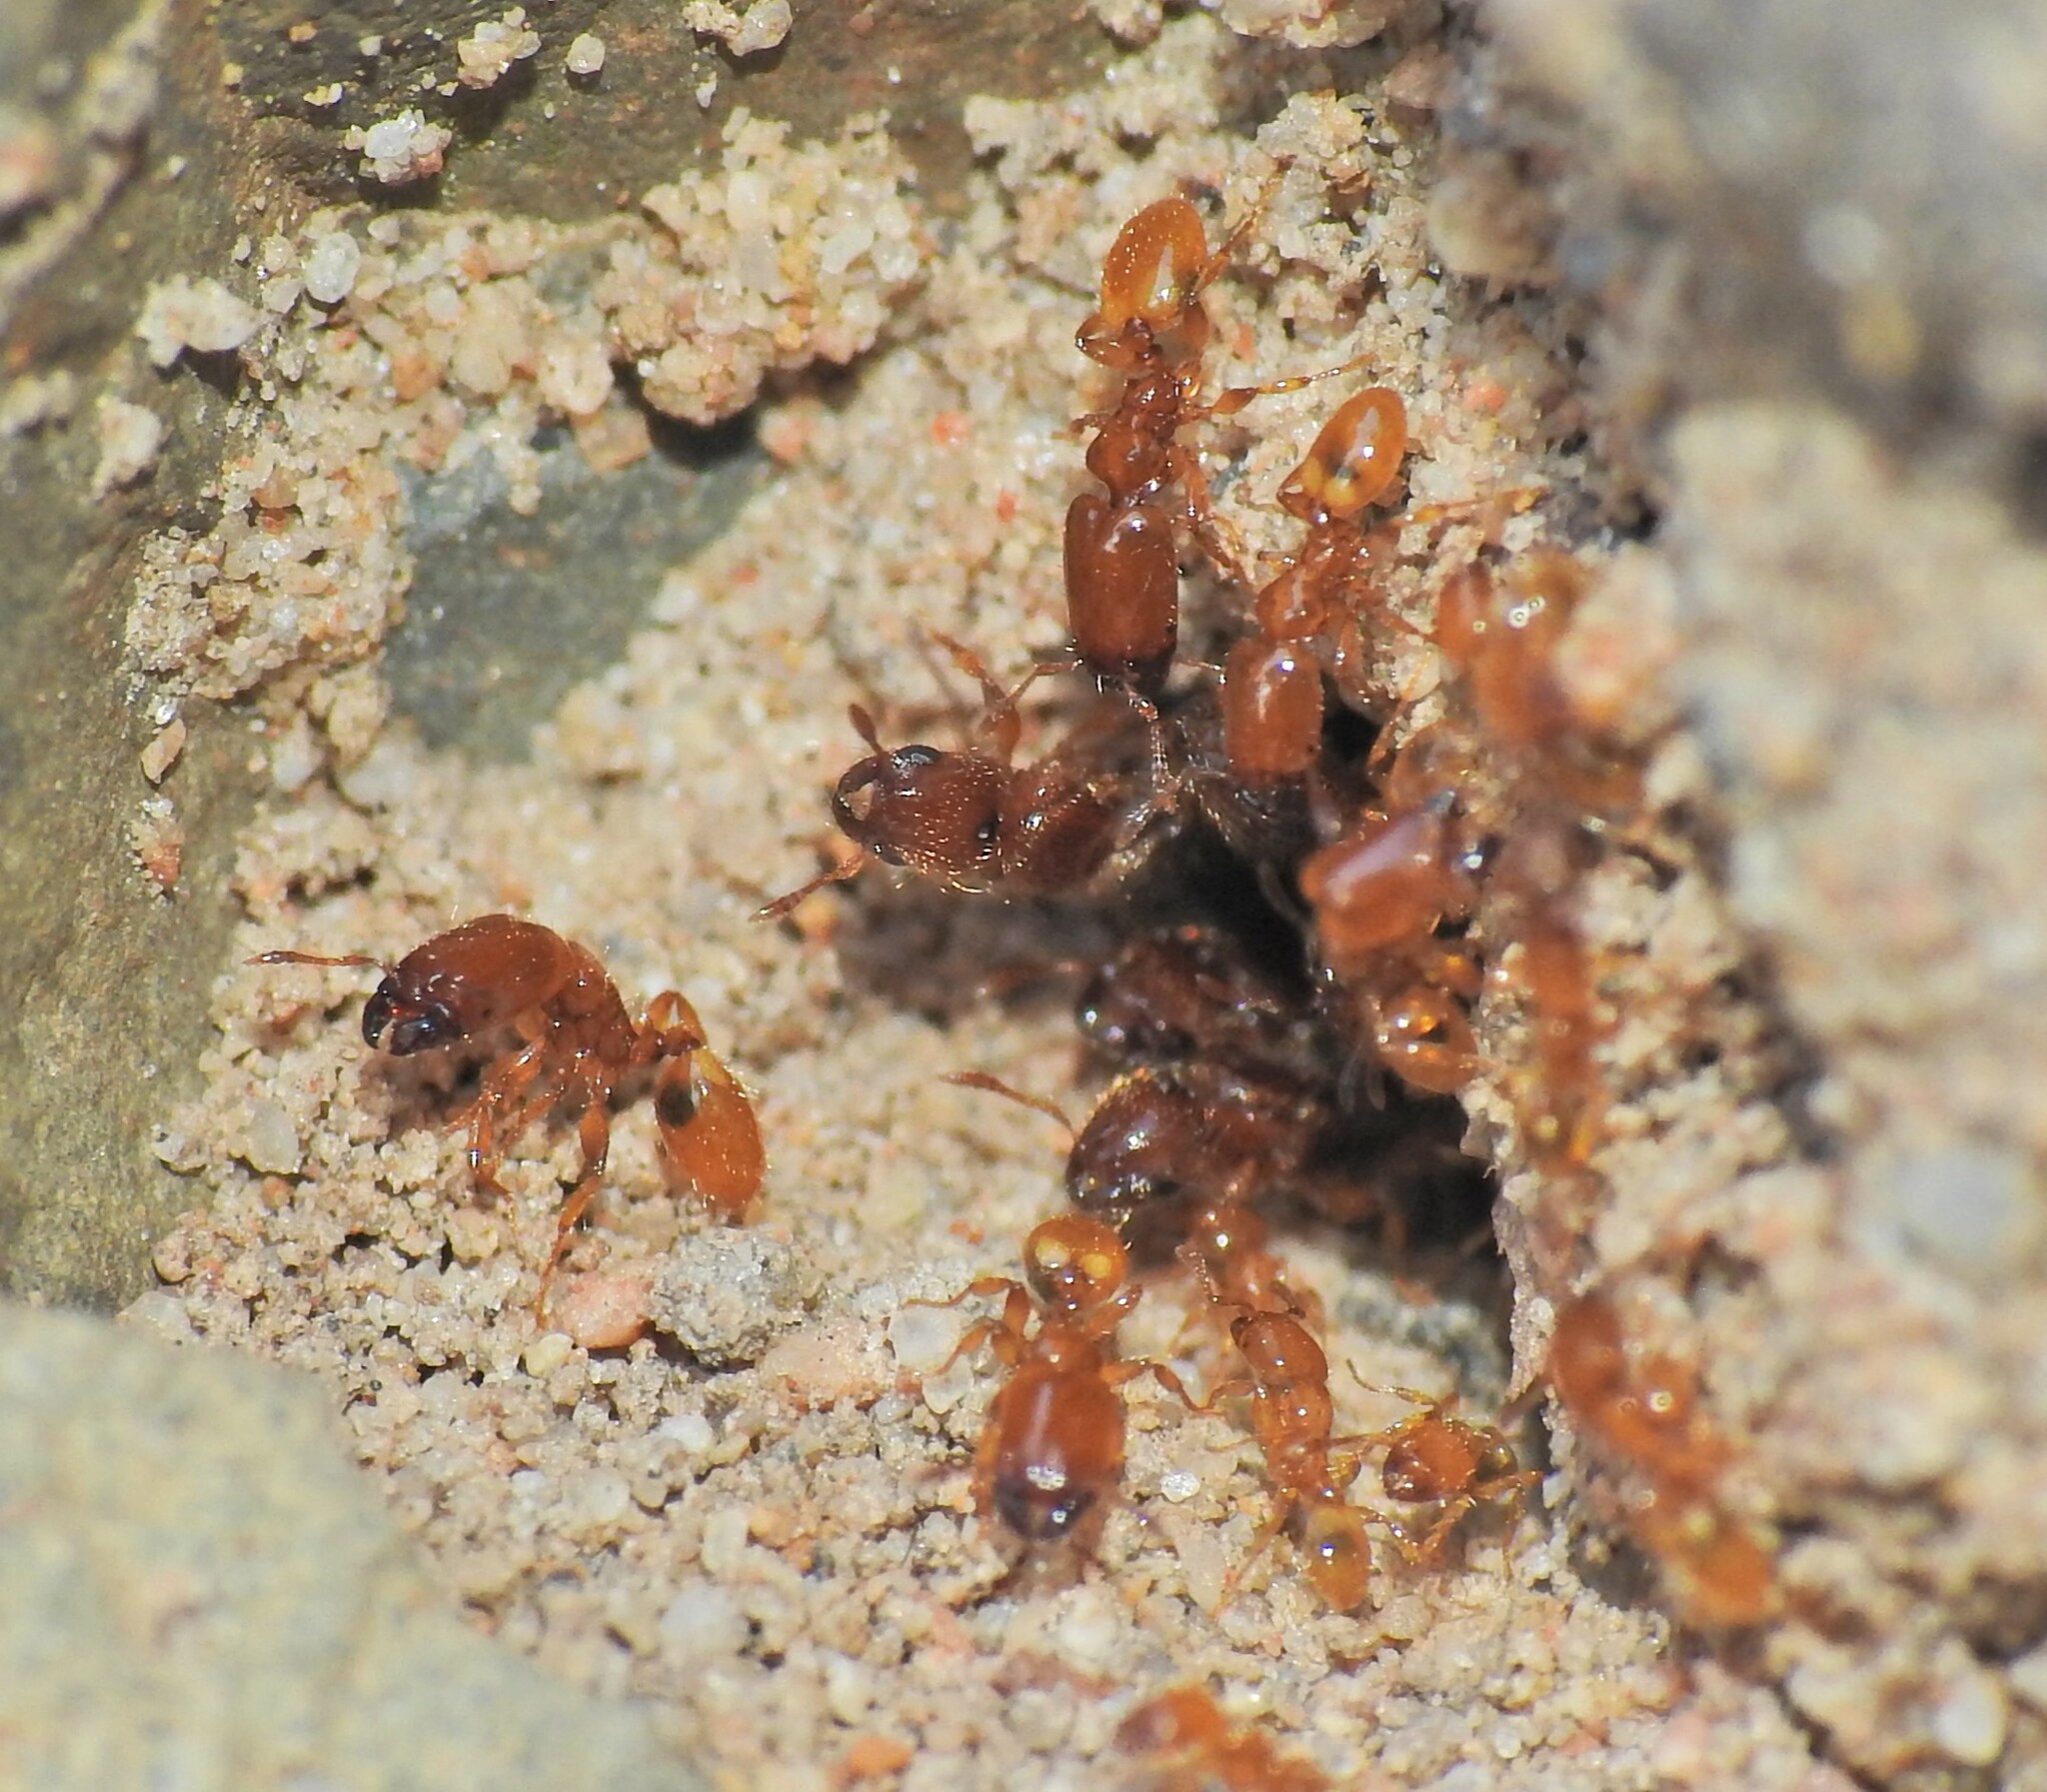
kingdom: Animalia
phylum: Arthropoda
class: Insecta
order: Hymenoptera
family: Formicidae
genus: Pheidole
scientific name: Pheidole
